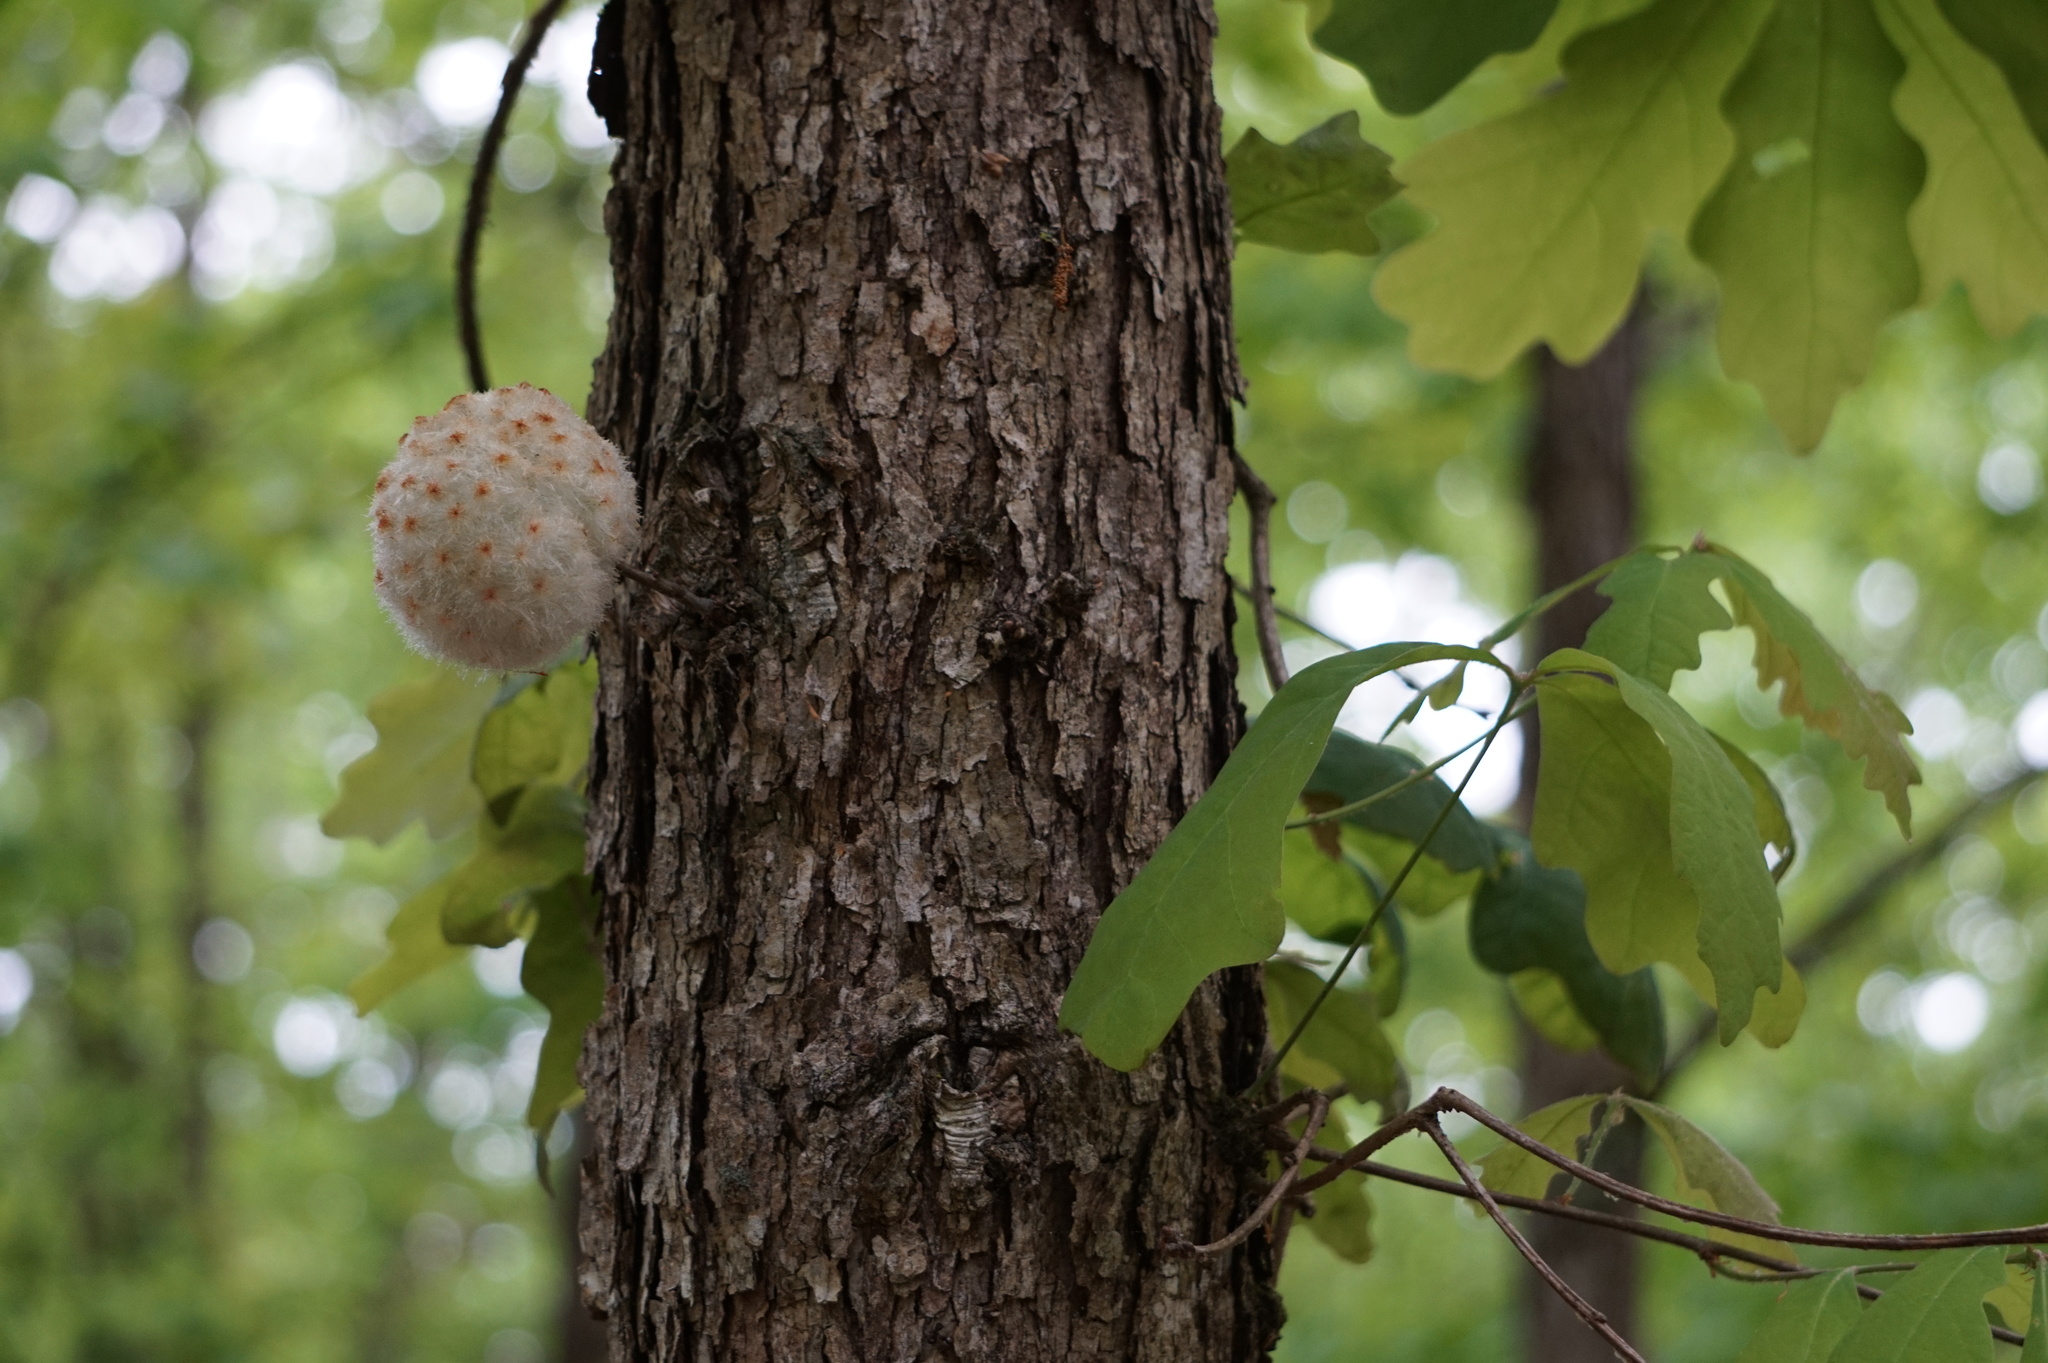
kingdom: Animalia
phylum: Arthropoda
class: Insecta
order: Hymenoptera
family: Cynipidae
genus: Callirhytis
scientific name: Callirhytis
